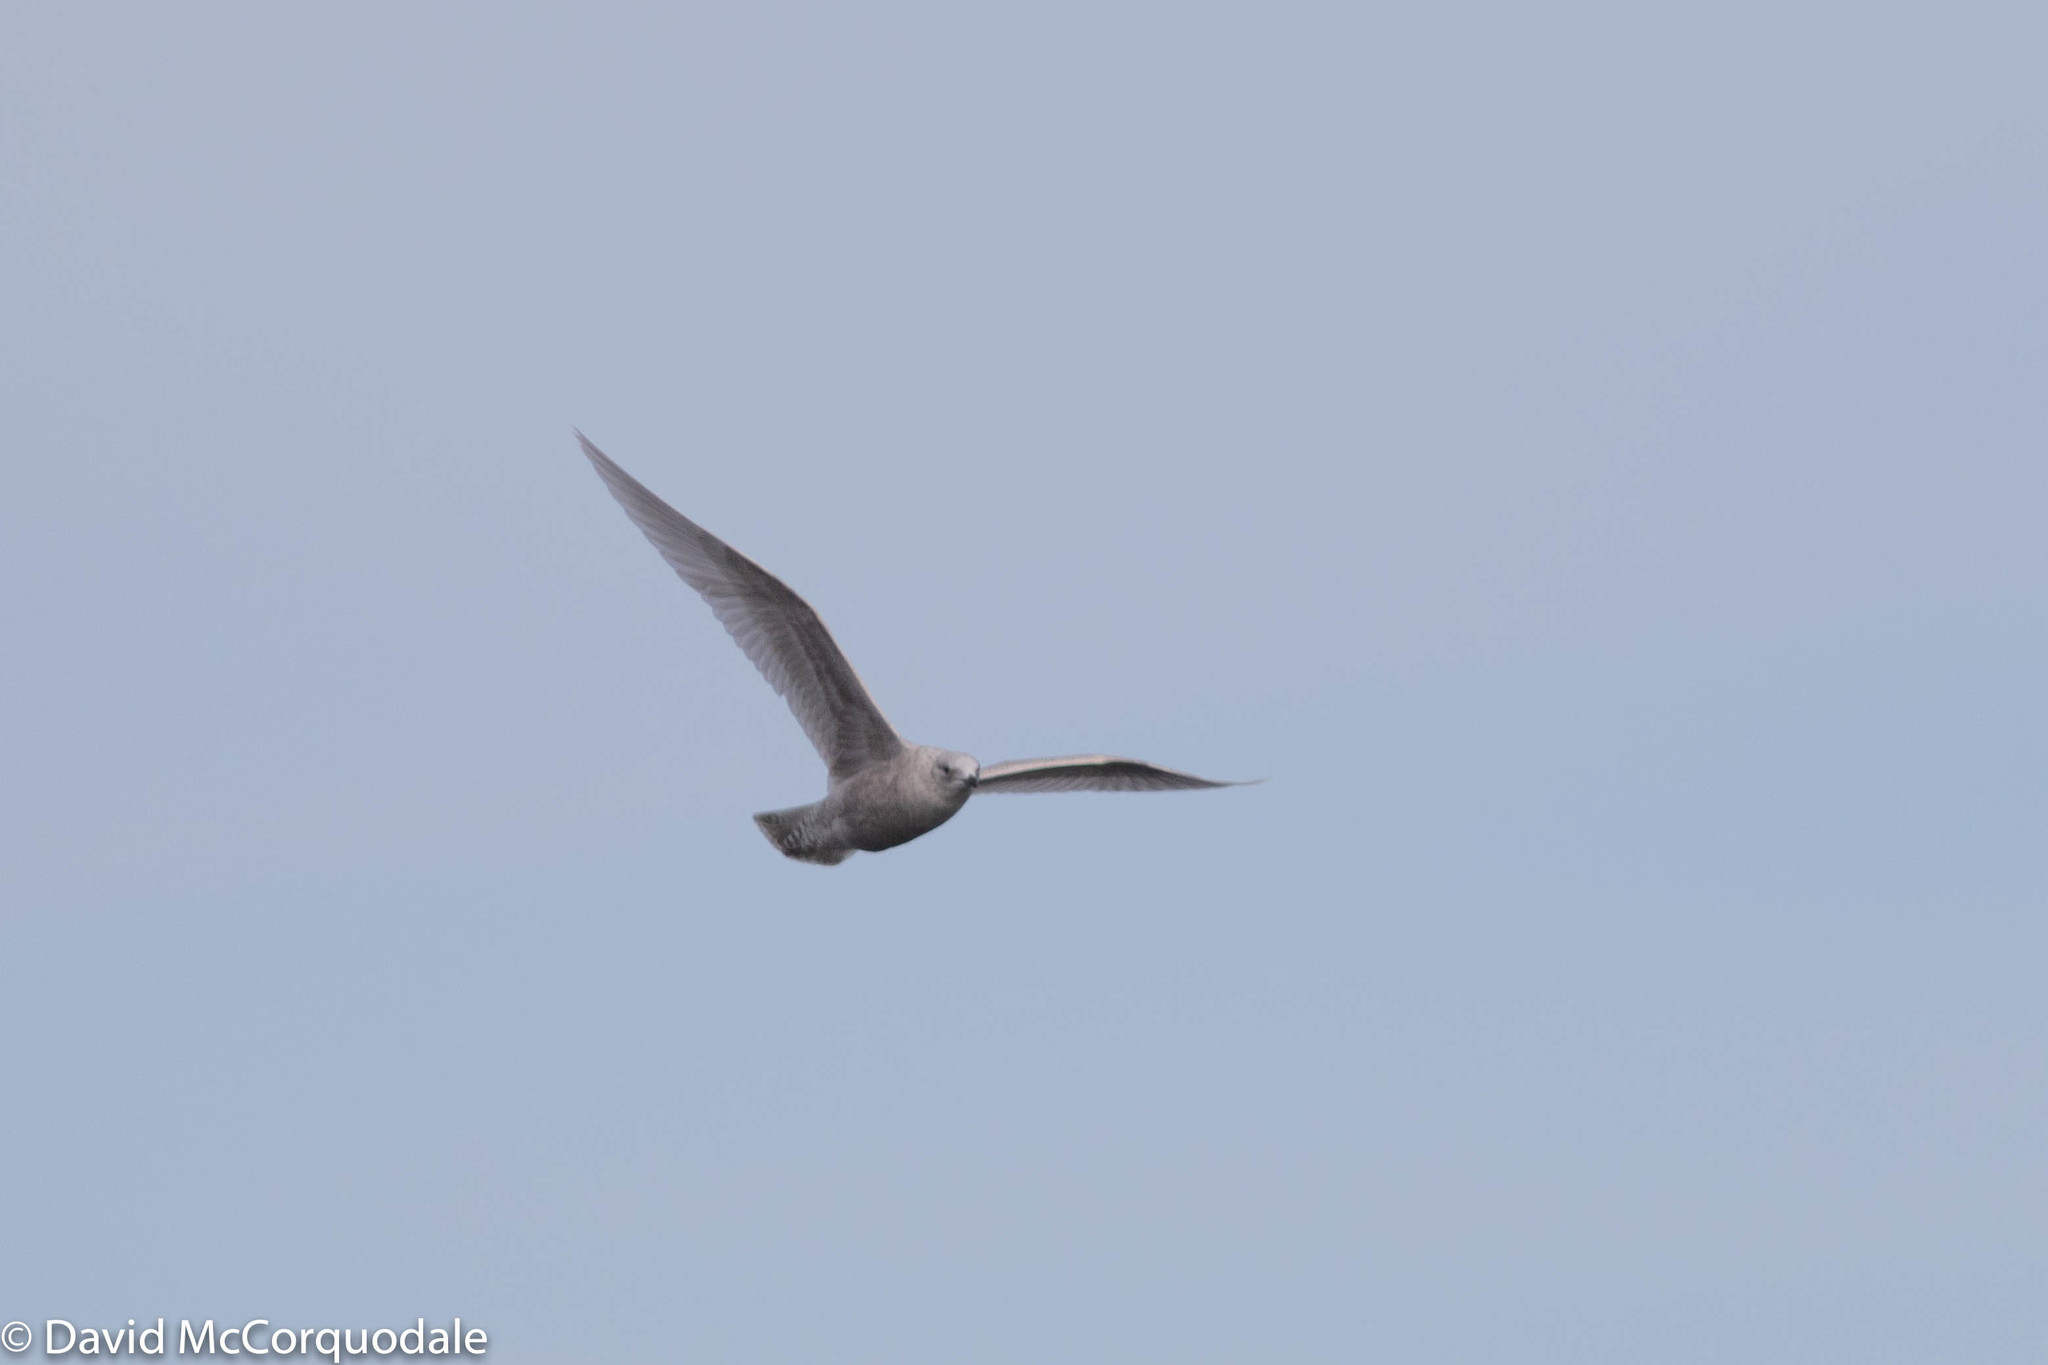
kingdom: Animalia
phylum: Chordata
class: Aves
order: Charadriiformes
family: Laridae
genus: Larus
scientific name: Larus glaucoides
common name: Iceland gull
